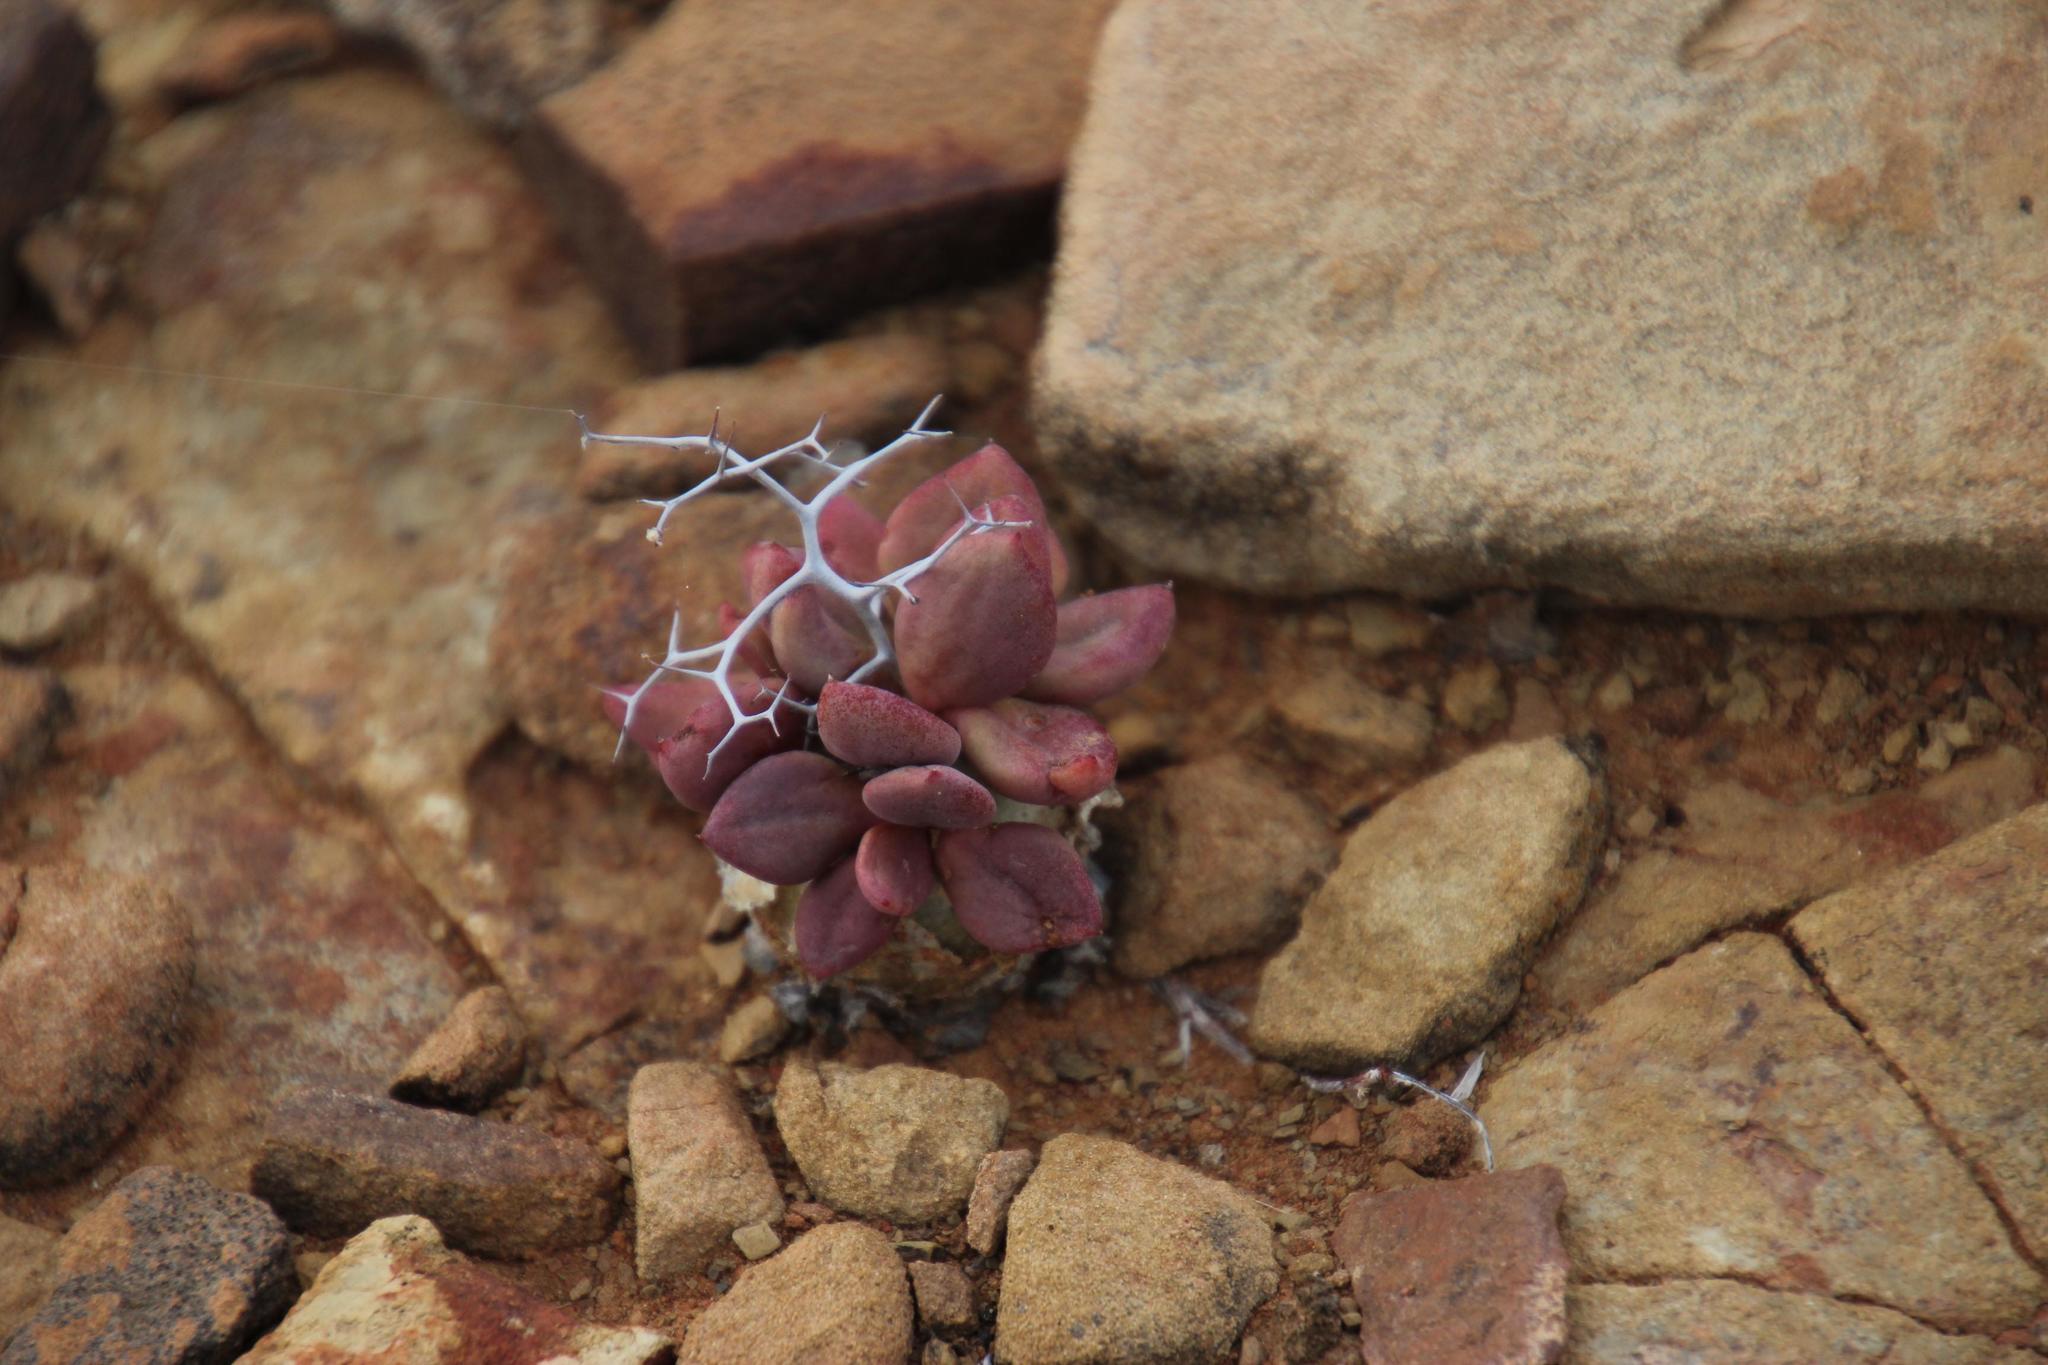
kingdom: Plantae
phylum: Tracheophyta
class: Magnoliopsida
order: Saxifragales
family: Crassulaceae
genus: Tylecodon
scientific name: Tylecodon reticulatus
